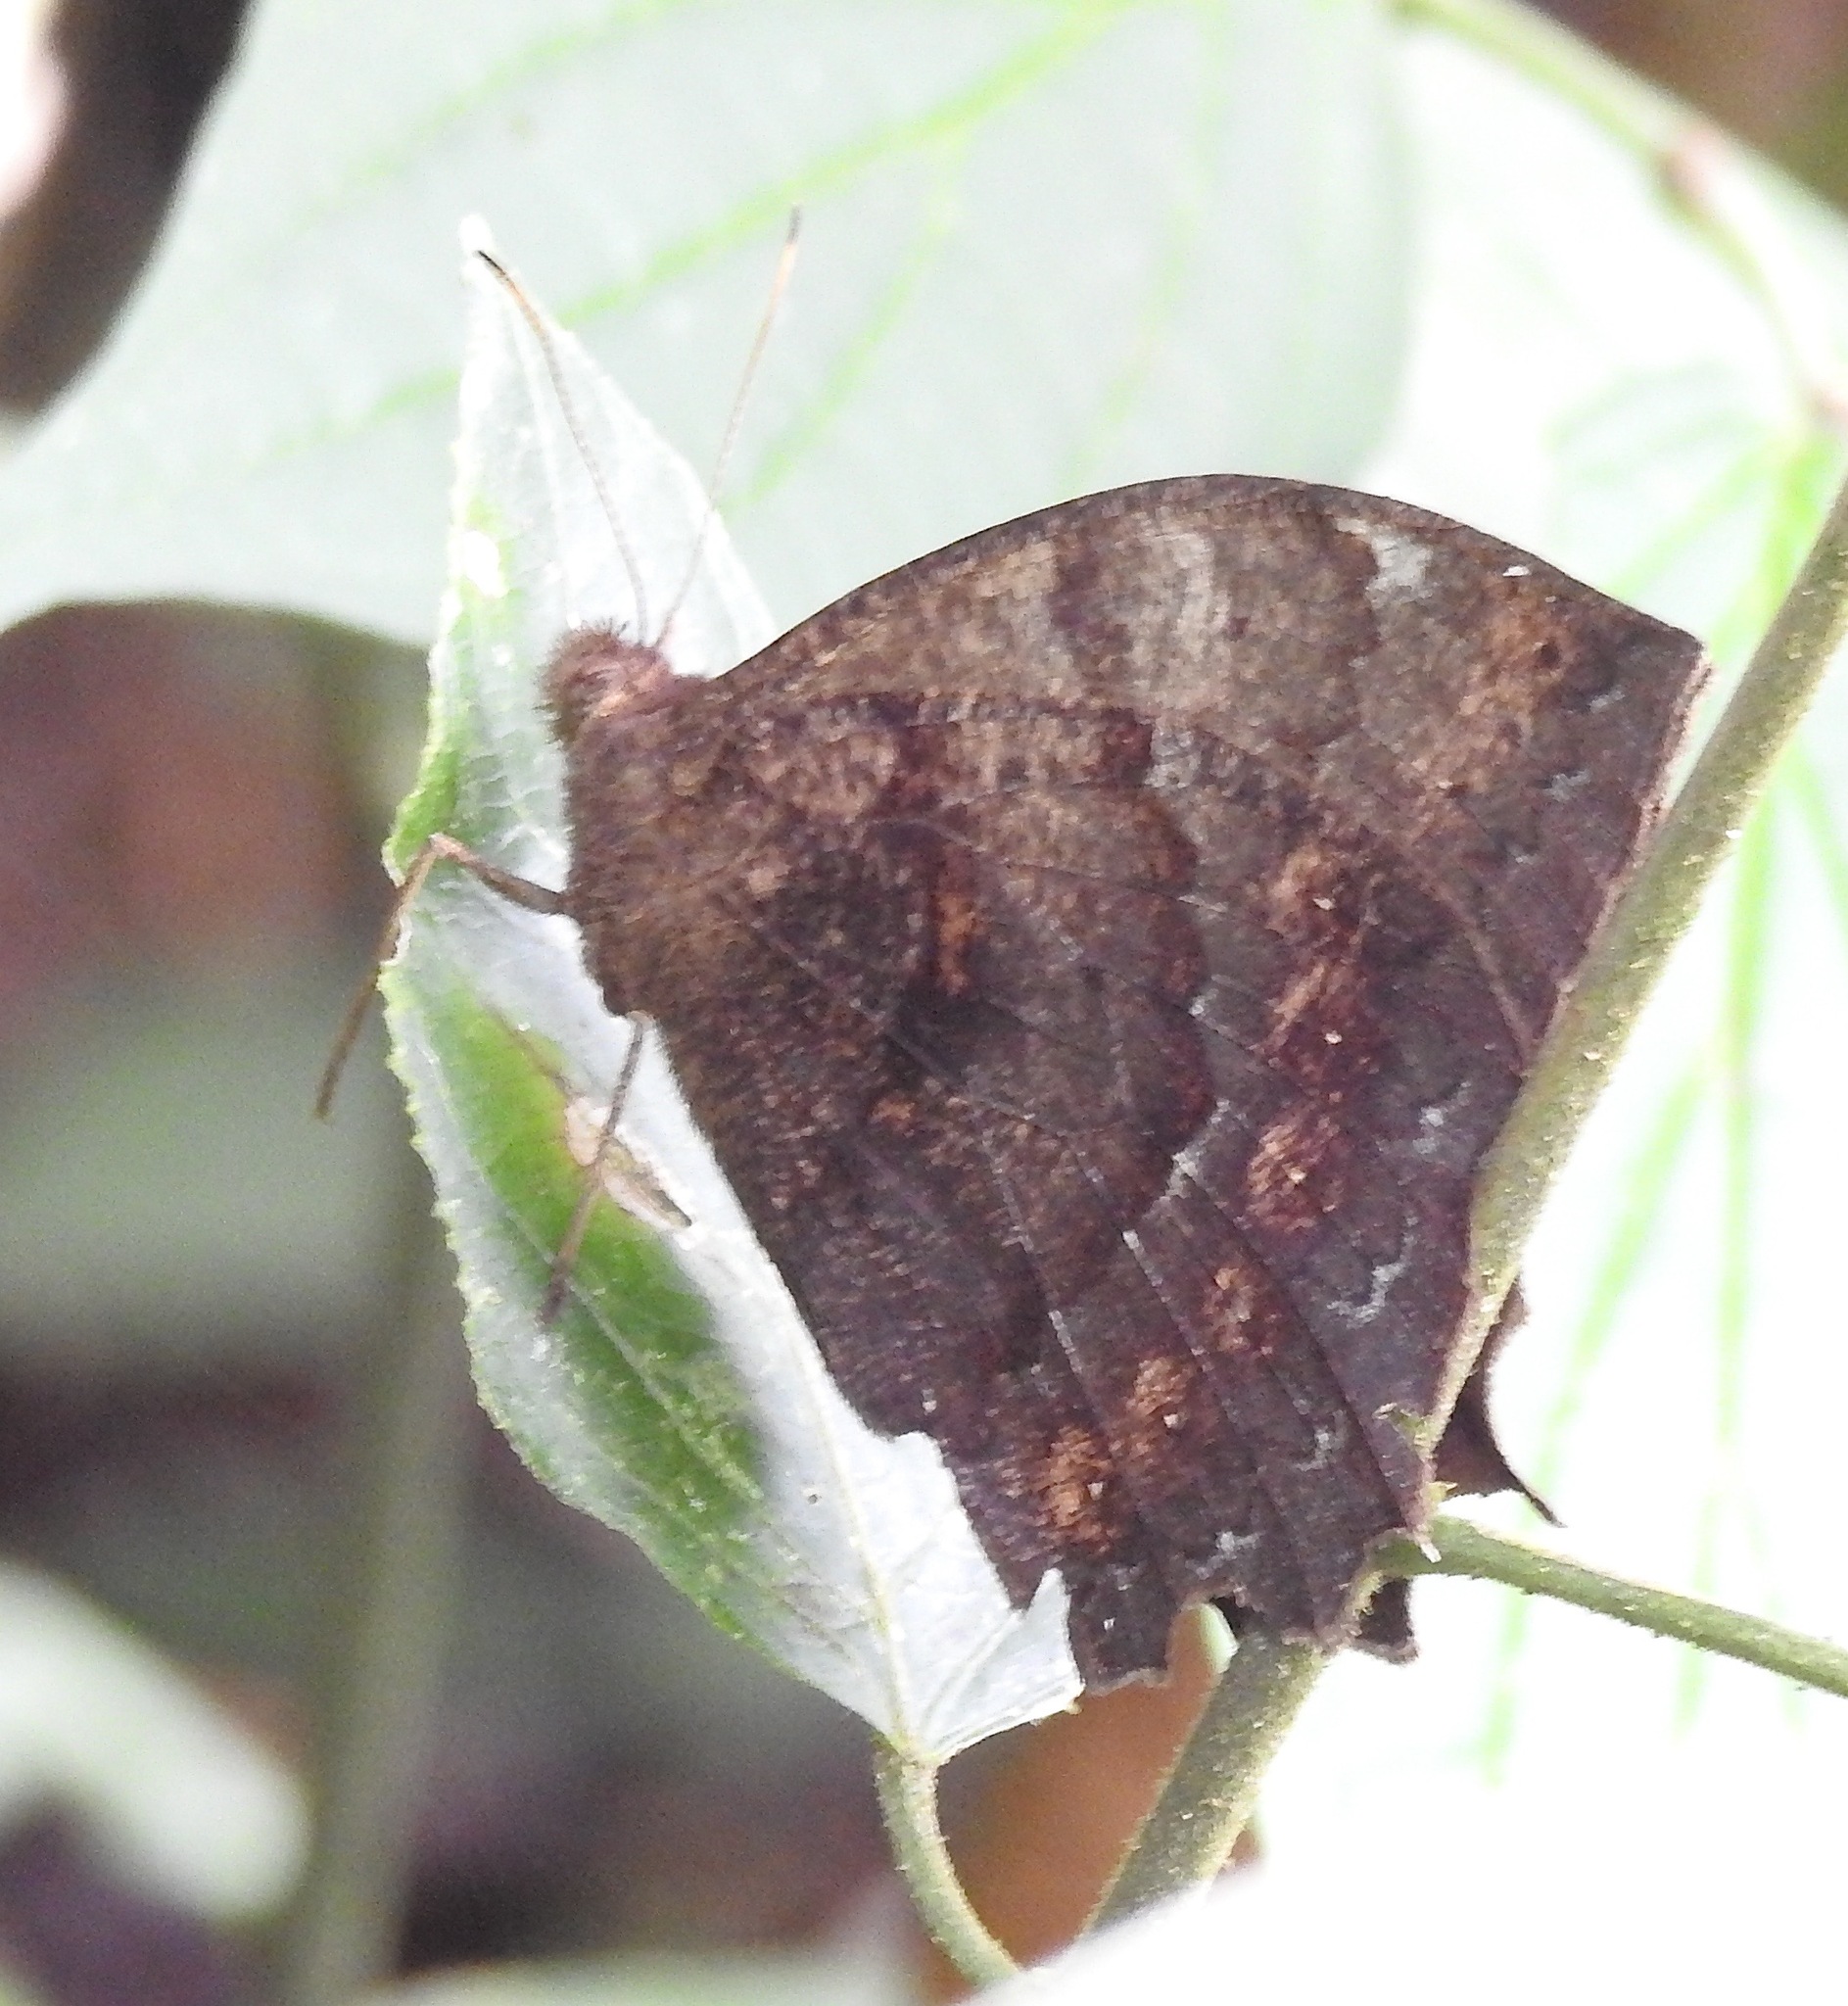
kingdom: Animalia
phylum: Arthropoda
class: Insecta
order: Lepidoptera
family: Nymphalidae
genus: Taygetis
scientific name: Taygetis larua
